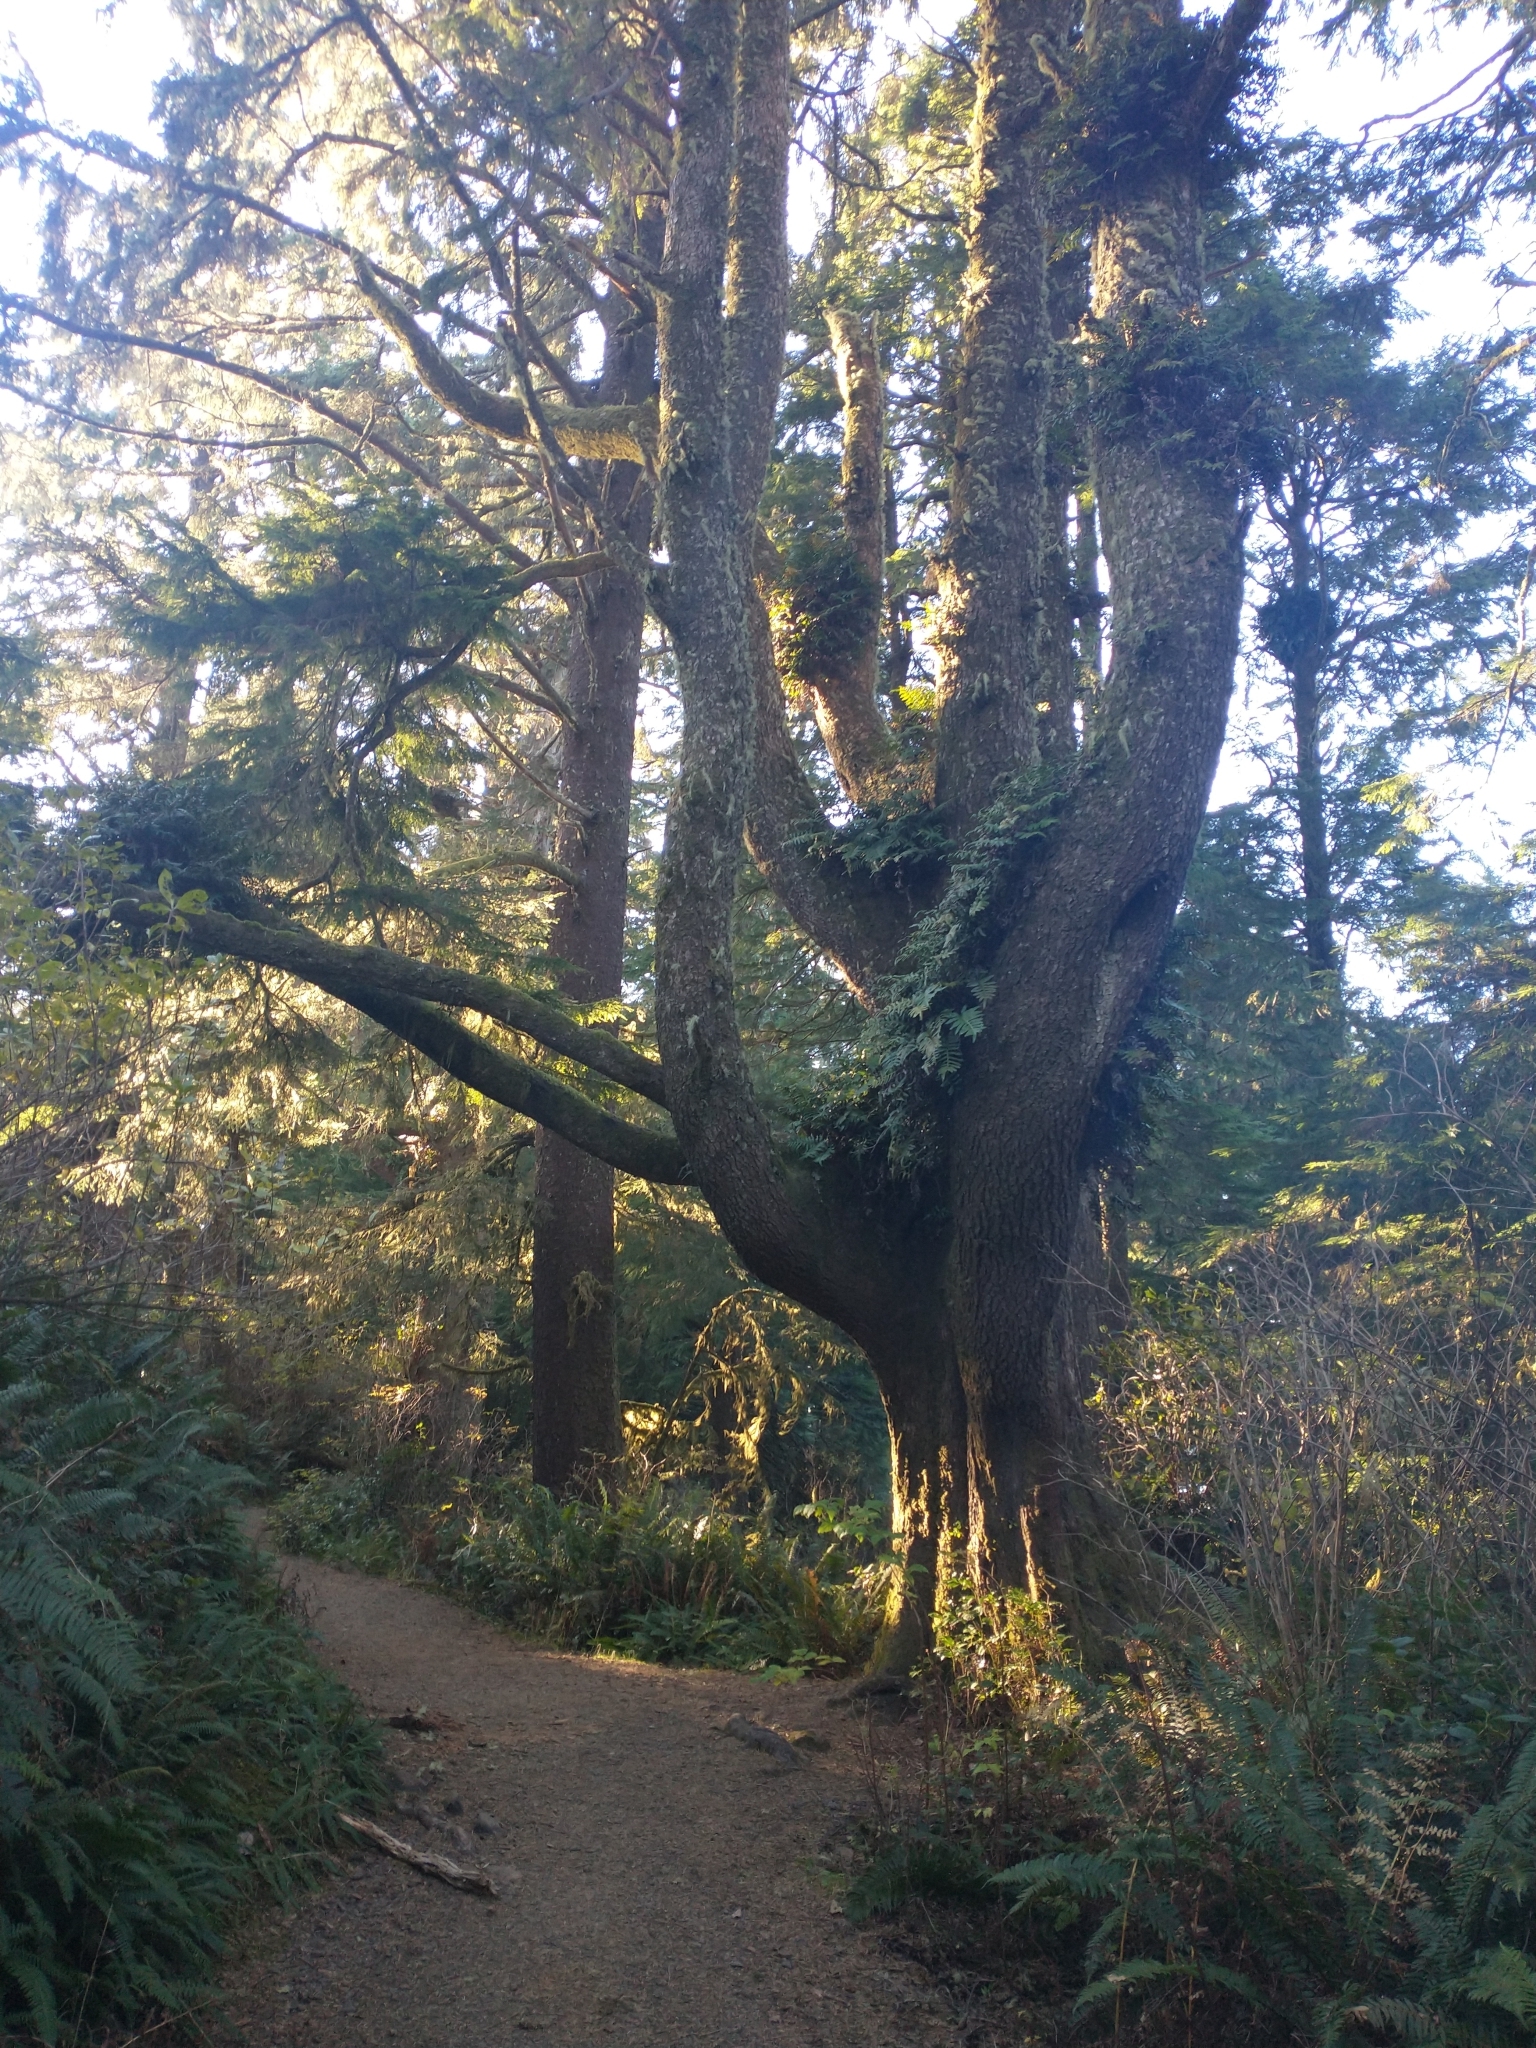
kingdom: Plantae
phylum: Tracheophyta
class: Pinopsida
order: Pinales
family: Pinaceae
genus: Picea
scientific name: Picea sitchensis
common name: Sitka spruce
